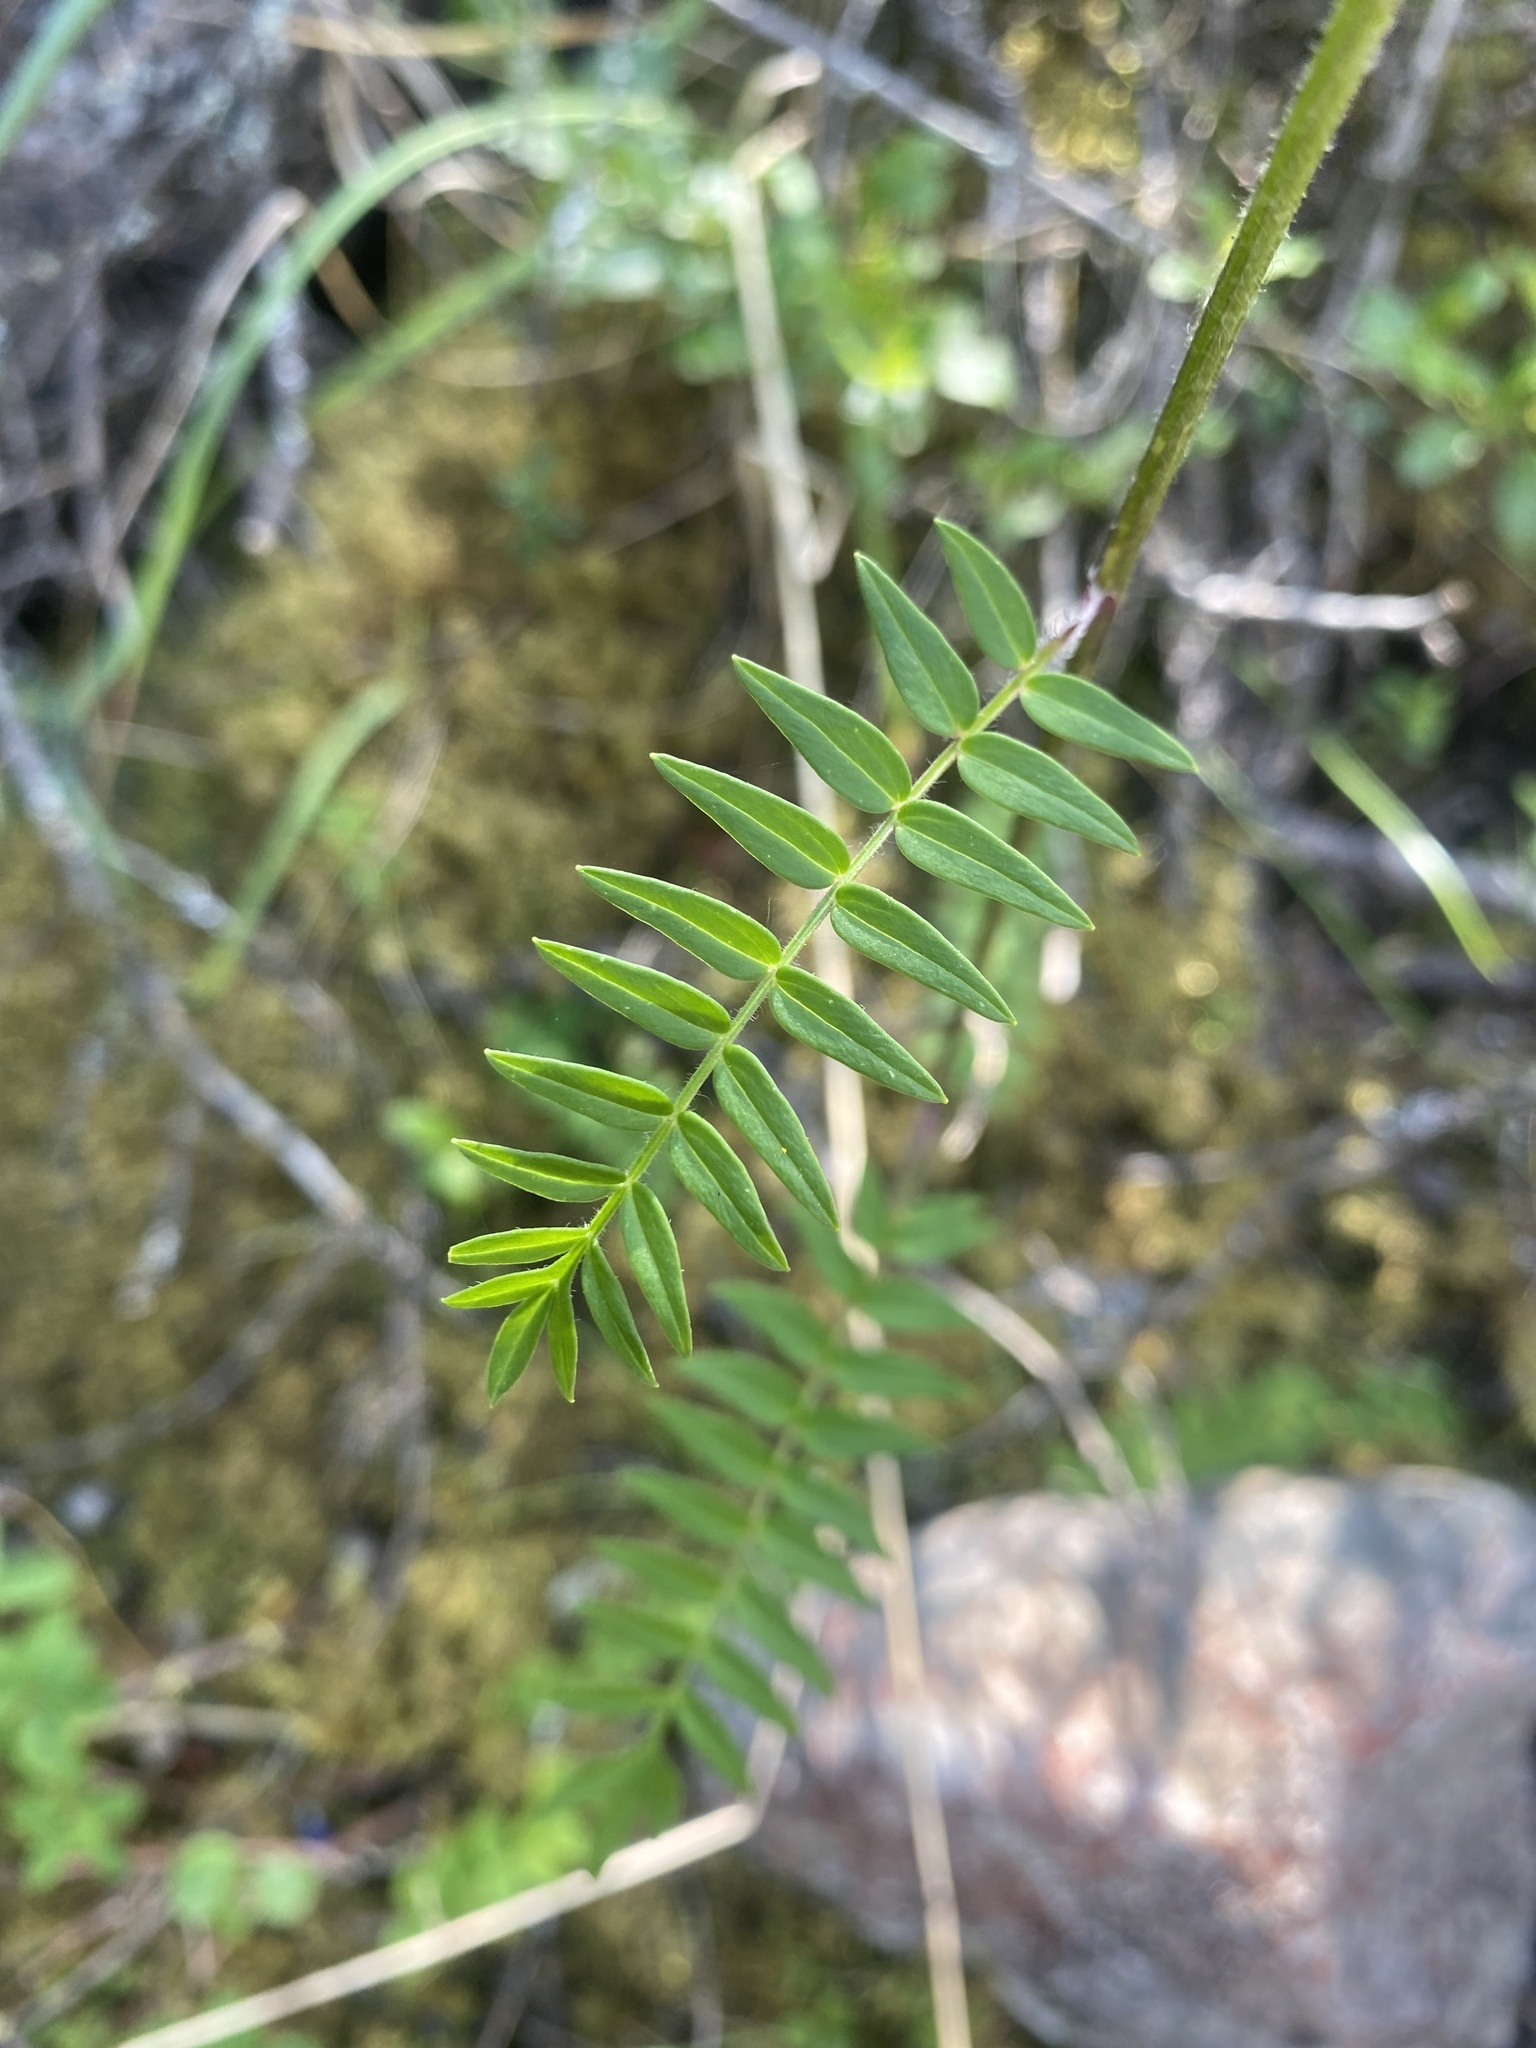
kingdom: Plantae
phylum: Tracheophyta
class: Magnoliopsida
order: Ericales
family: Polemoniaceae
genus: Polemonium
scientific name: Polemonium acutiflorum
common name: Tall jacob's-ladder
